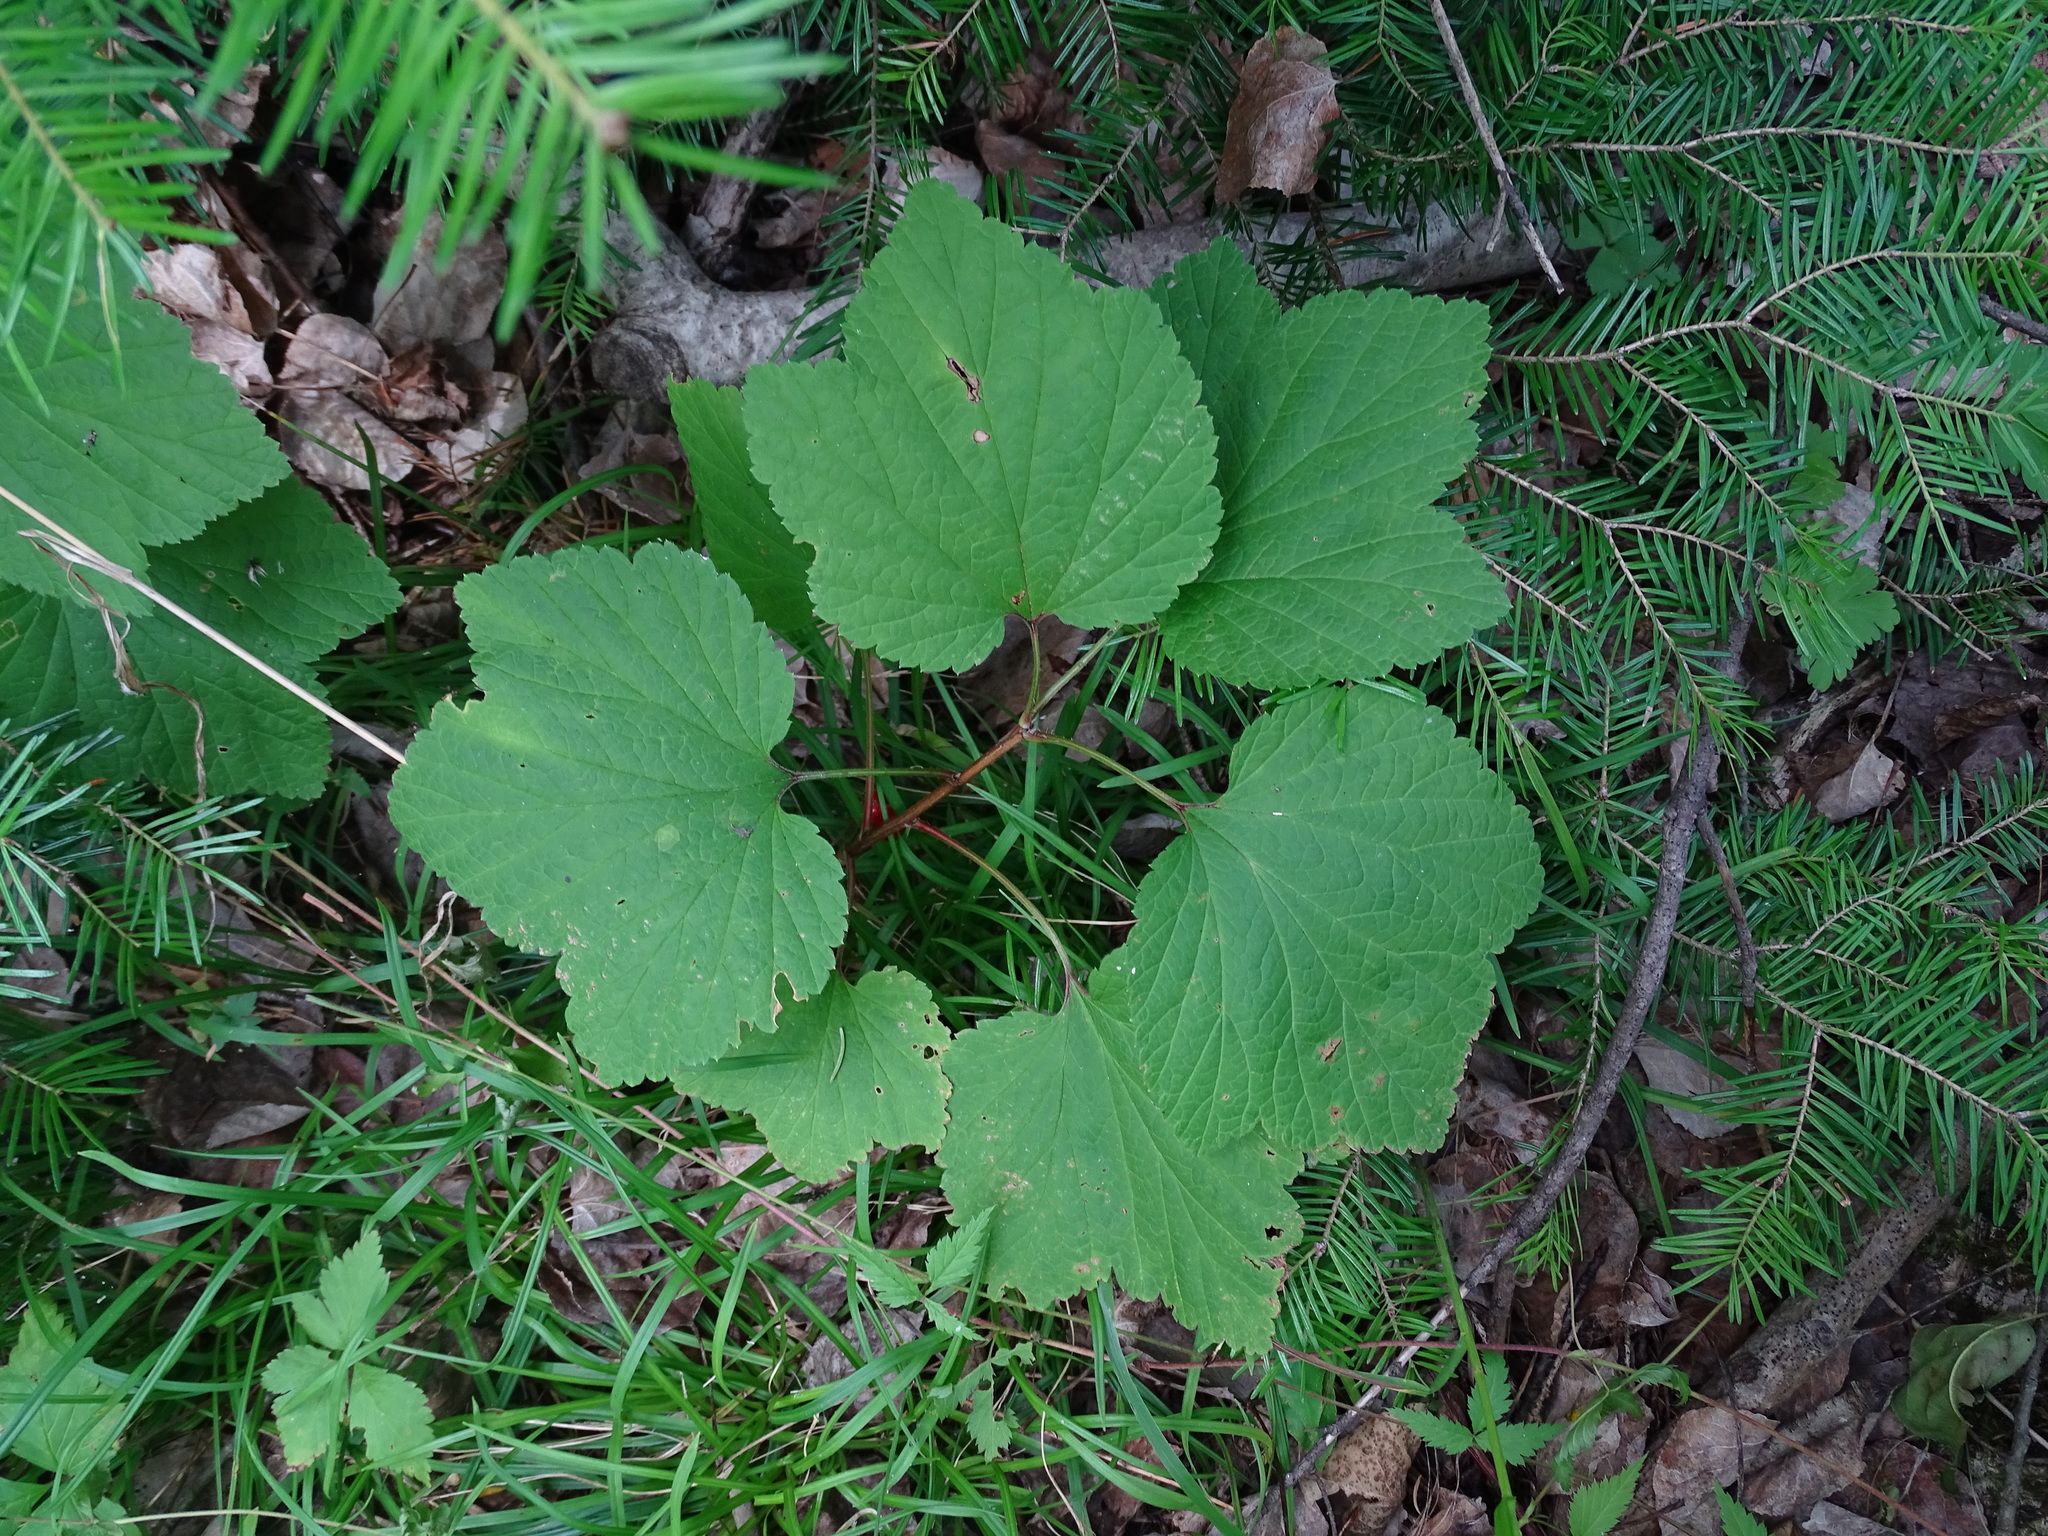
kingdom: Plantae
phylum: Tracheophyta
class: Magnoliopsida
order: Saxifragales
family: Grossulariaceae
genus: Ribes
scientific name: Ribes triste
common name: Swamp red currant
